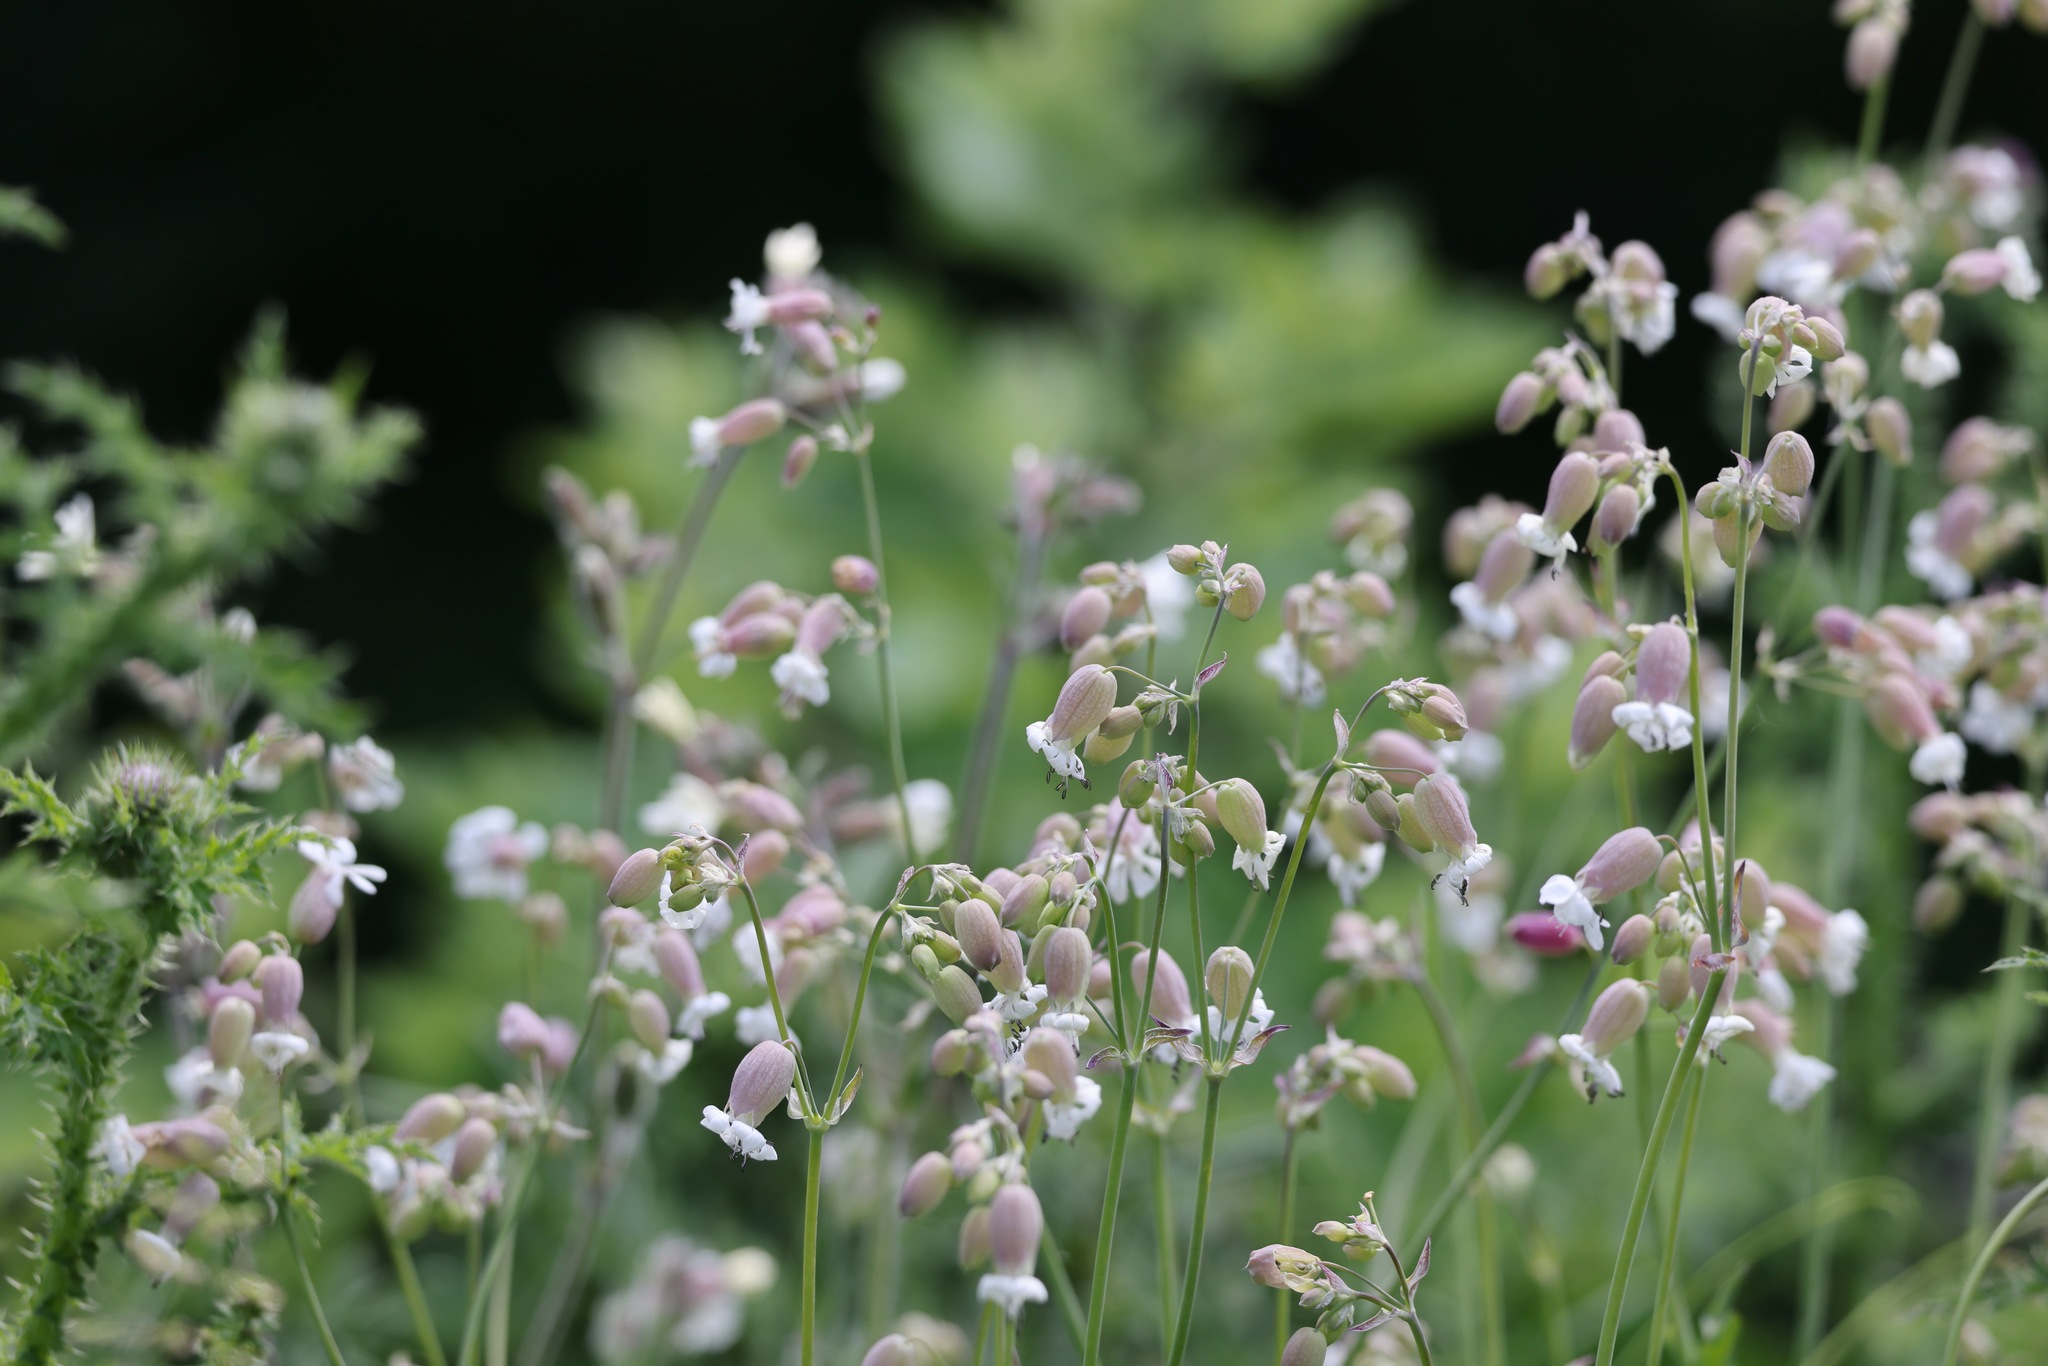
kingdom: Plantae
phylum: Tracheophyta
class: Magnoliopsida
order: Caryophyllales
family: Caryophyllaceae
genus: Silene
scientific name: Silene vulgaris
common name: Bladder campion
